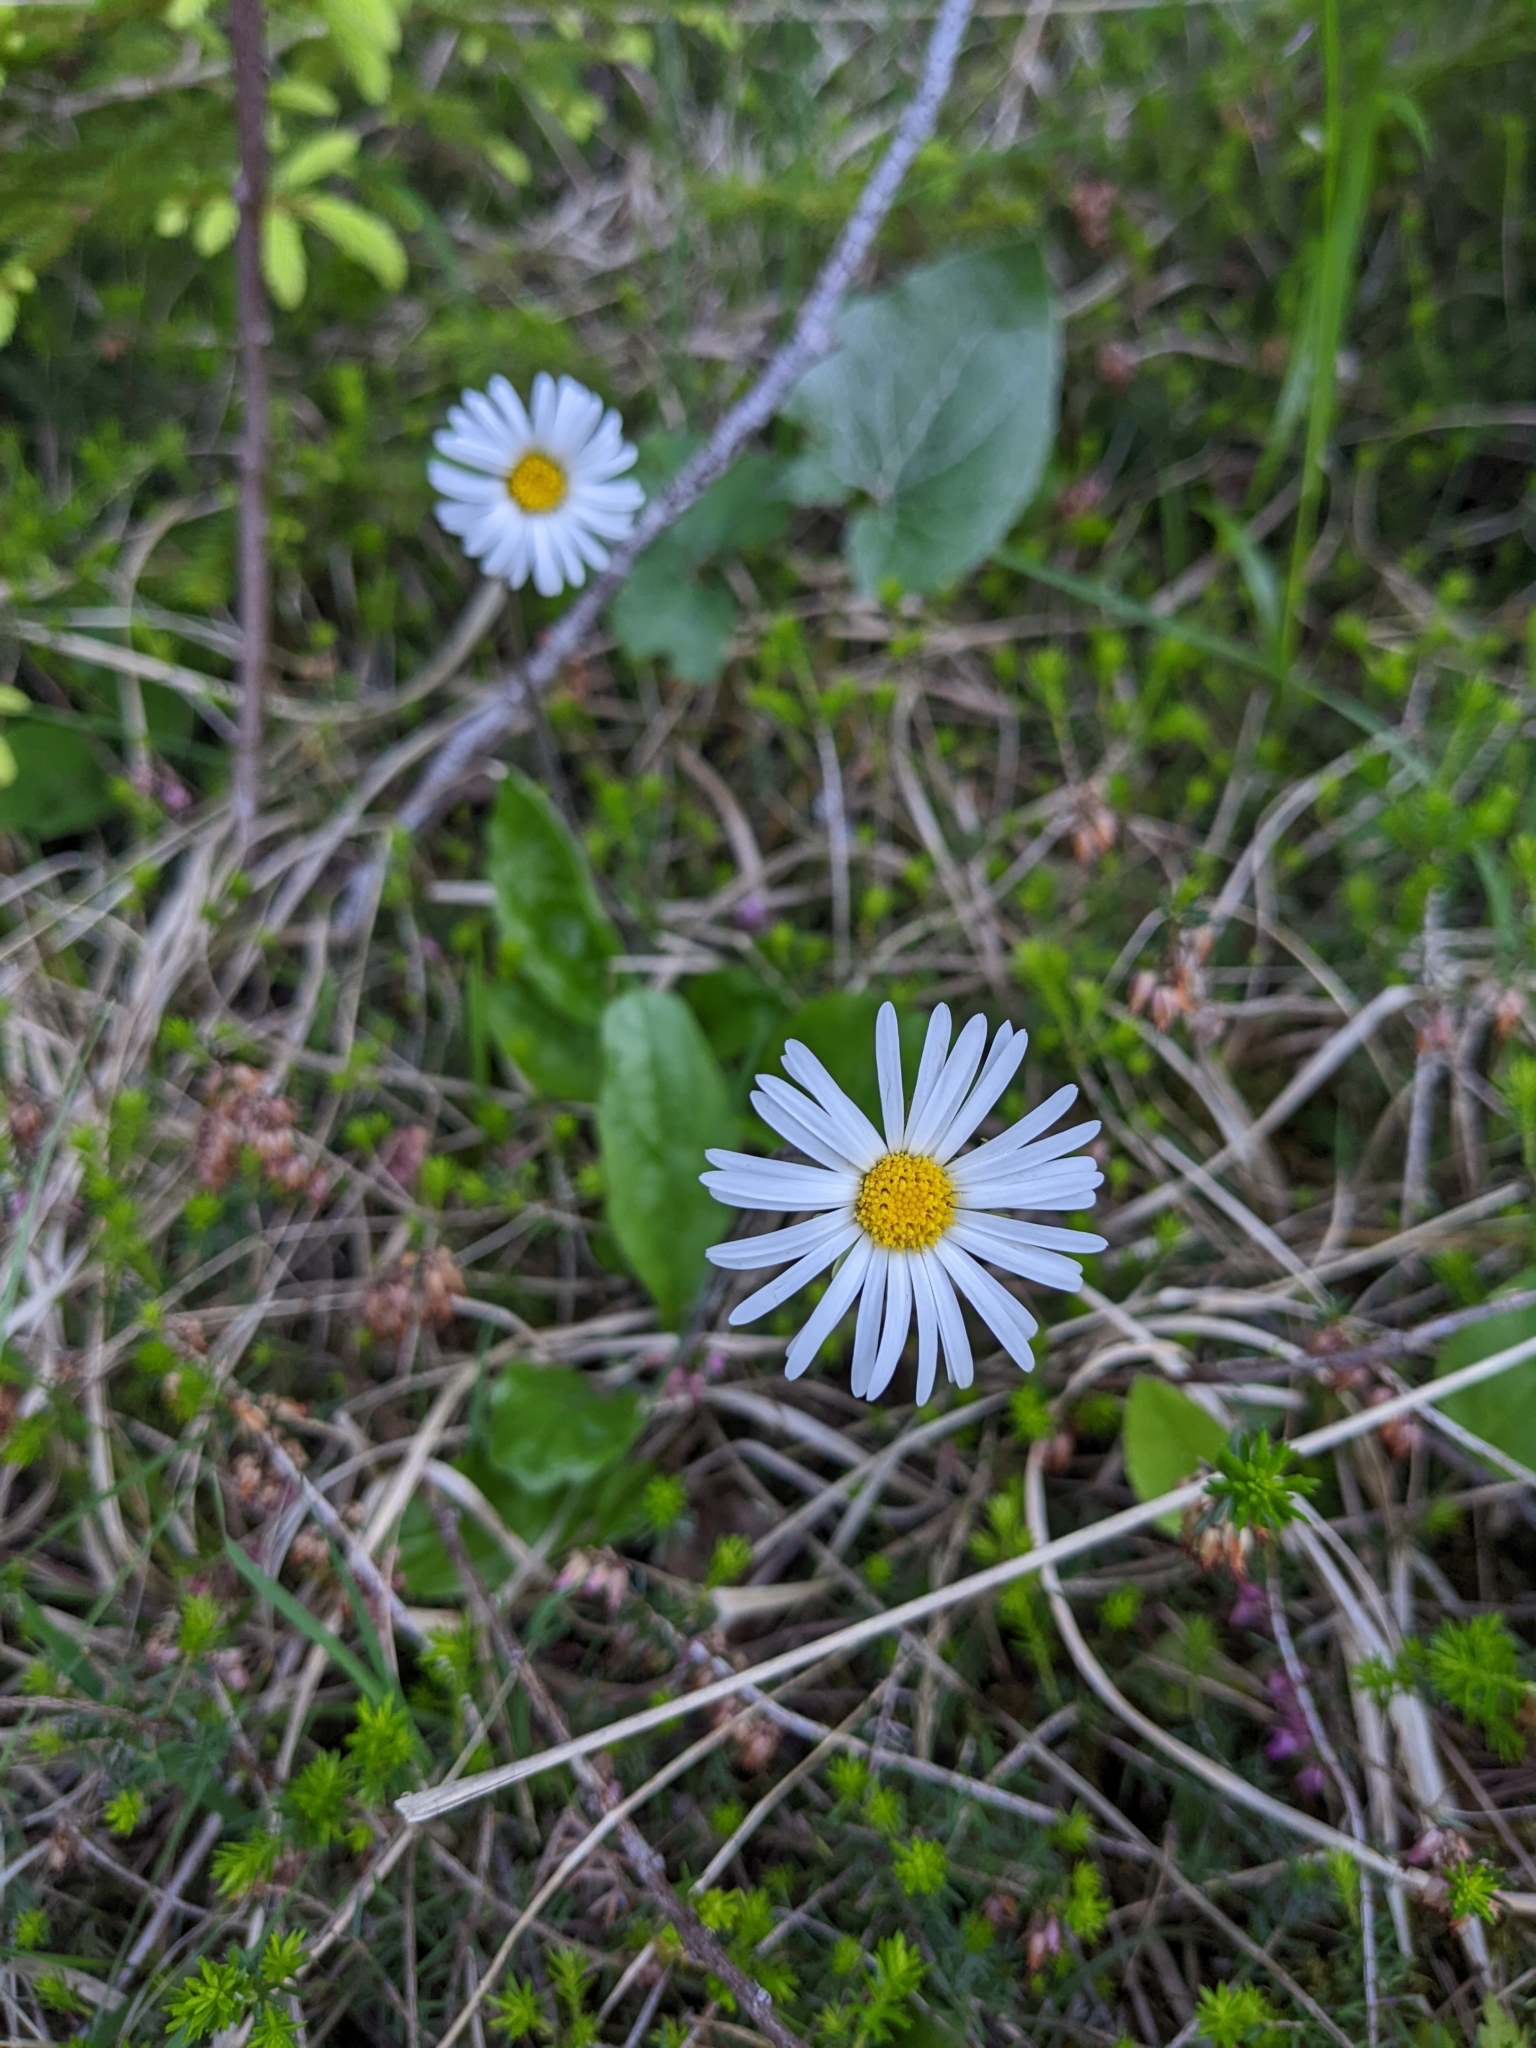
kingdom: Plantae
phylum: Tracheophyta
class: Magnoliopsida
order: Asterales
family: Asteraceae
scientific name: Asteraceae
